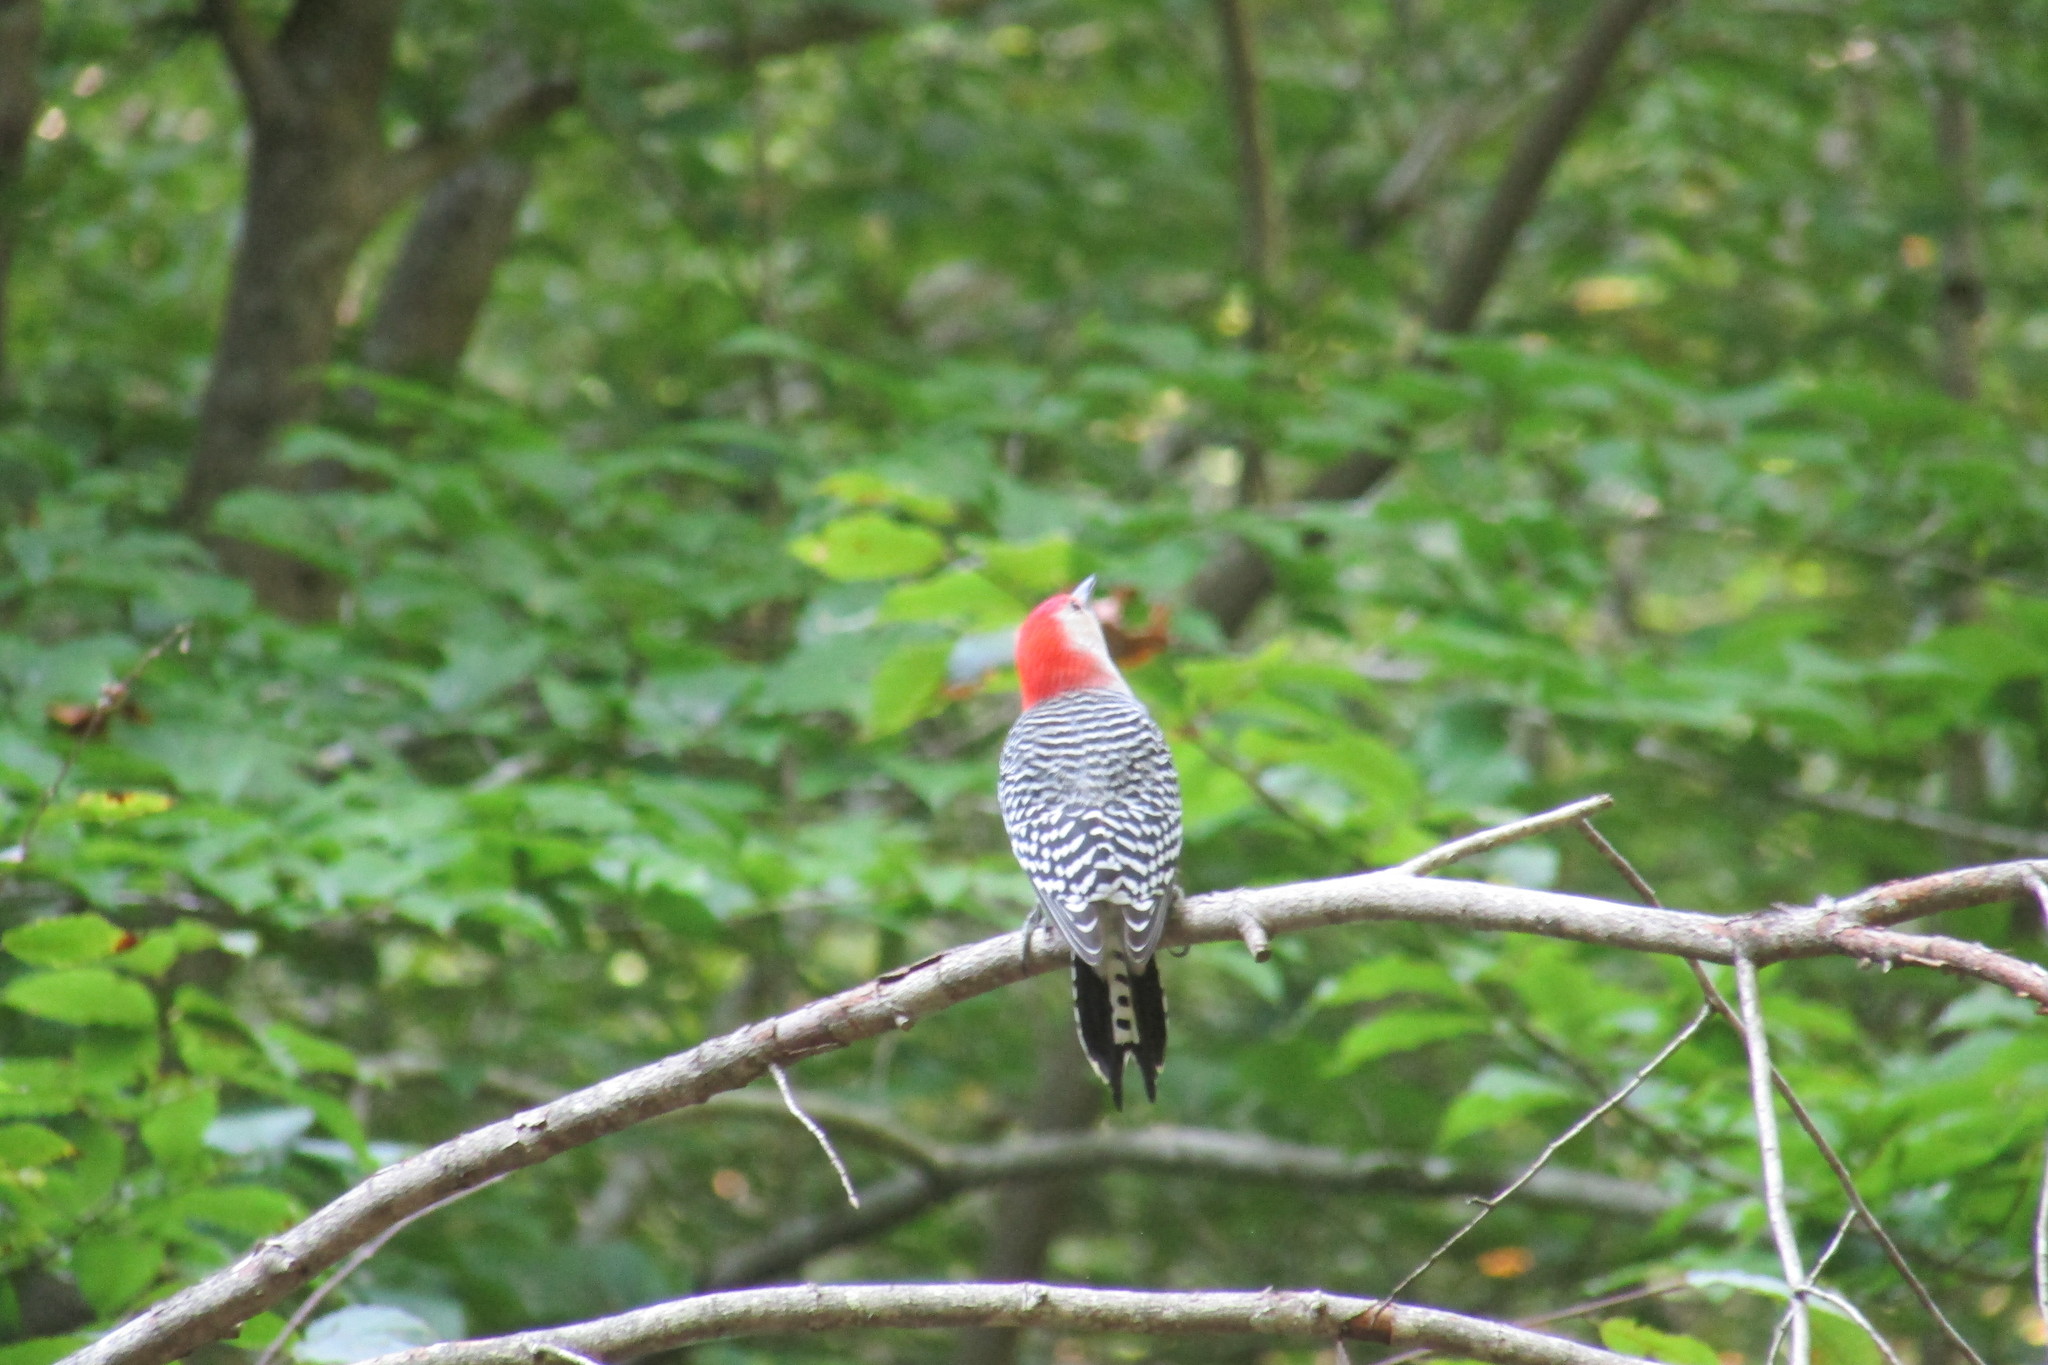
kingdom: Animalia
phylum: Chordata
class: Aves
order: Piciformes
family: Picidae
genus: Melanerpes
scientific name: Melanerpes carolinus
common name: Red-bellied woodpecker
